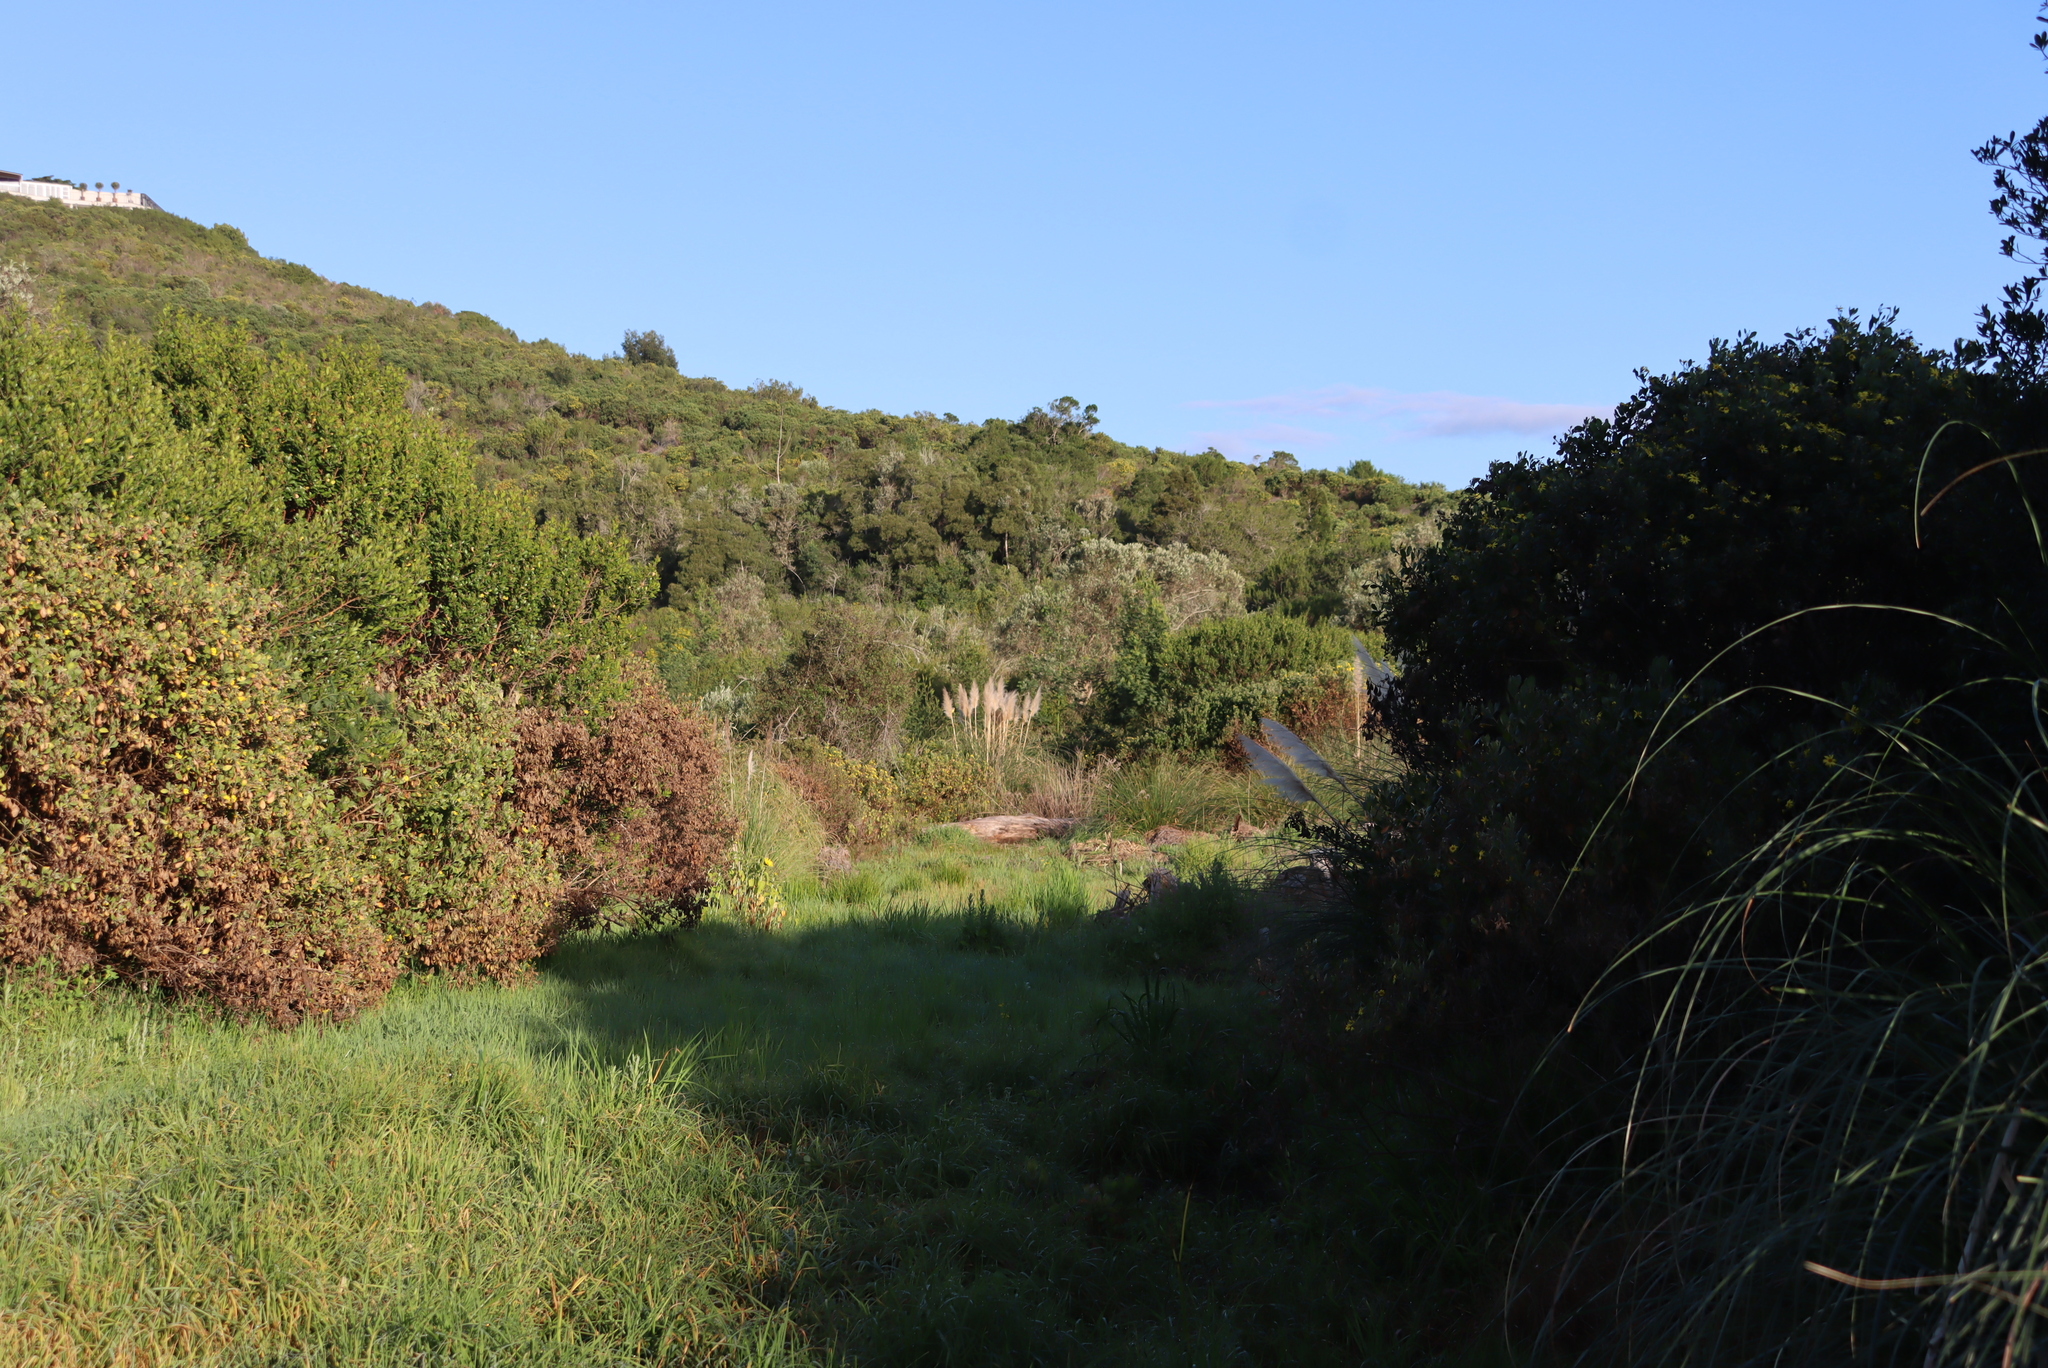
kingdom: Plantae
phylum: Tracheophyta
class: Liliopsida
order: Poales
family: Poaceae
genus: Cortaderia
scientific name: Cortaderia selloana
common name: Uruguayan pampas grass
